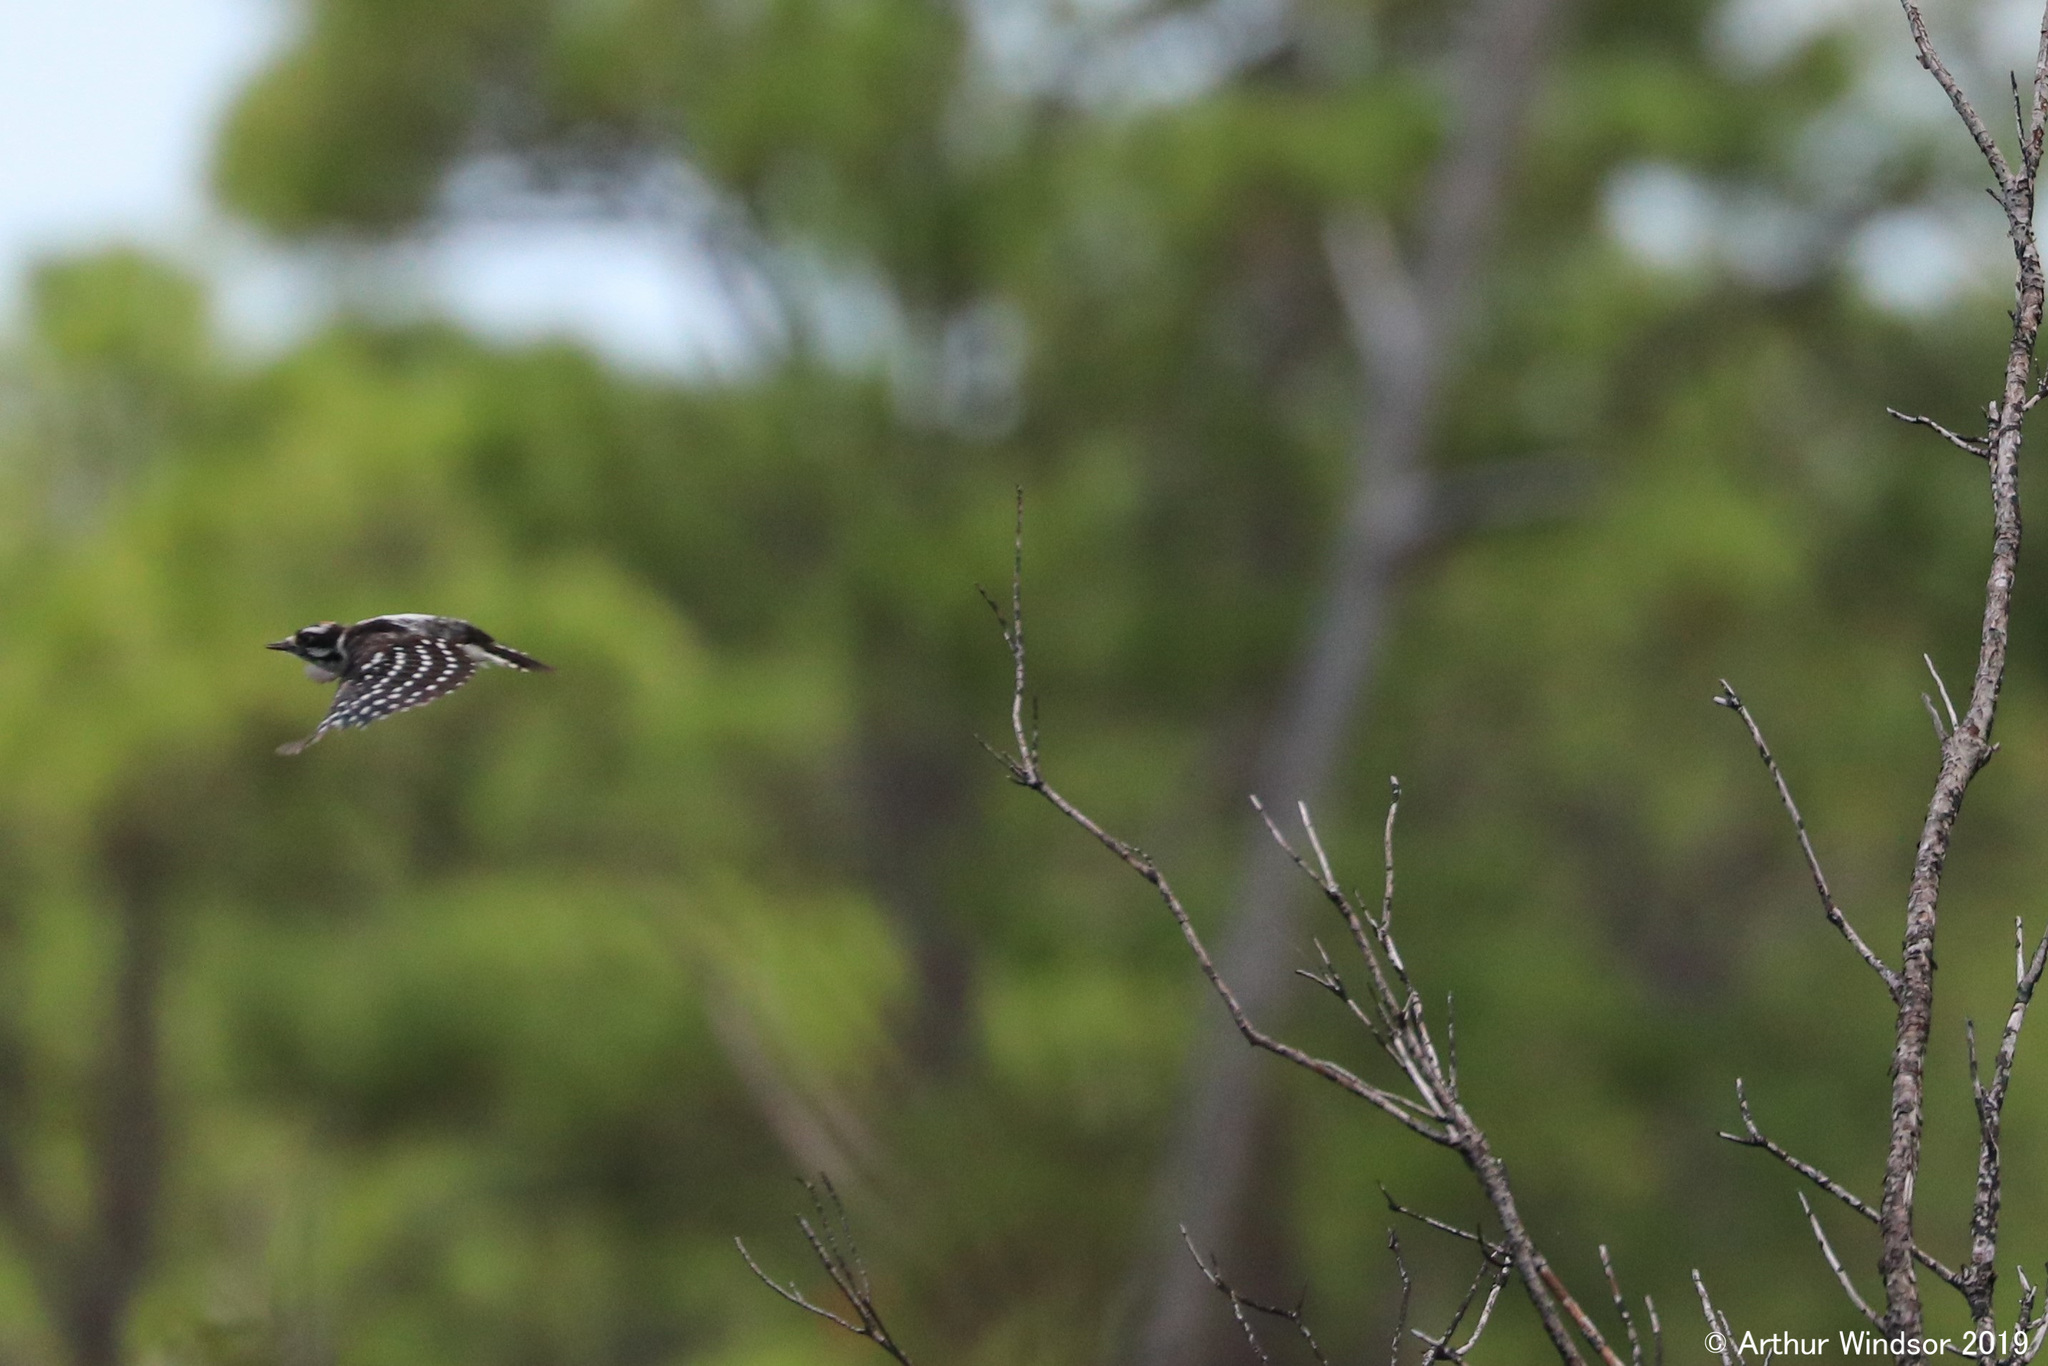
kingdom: Animalia
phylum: Chordata
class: Aves
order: Piciformes
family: Picidae
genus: Dryobates
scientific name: Dryobates pubescens
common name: Downy woodpecker
